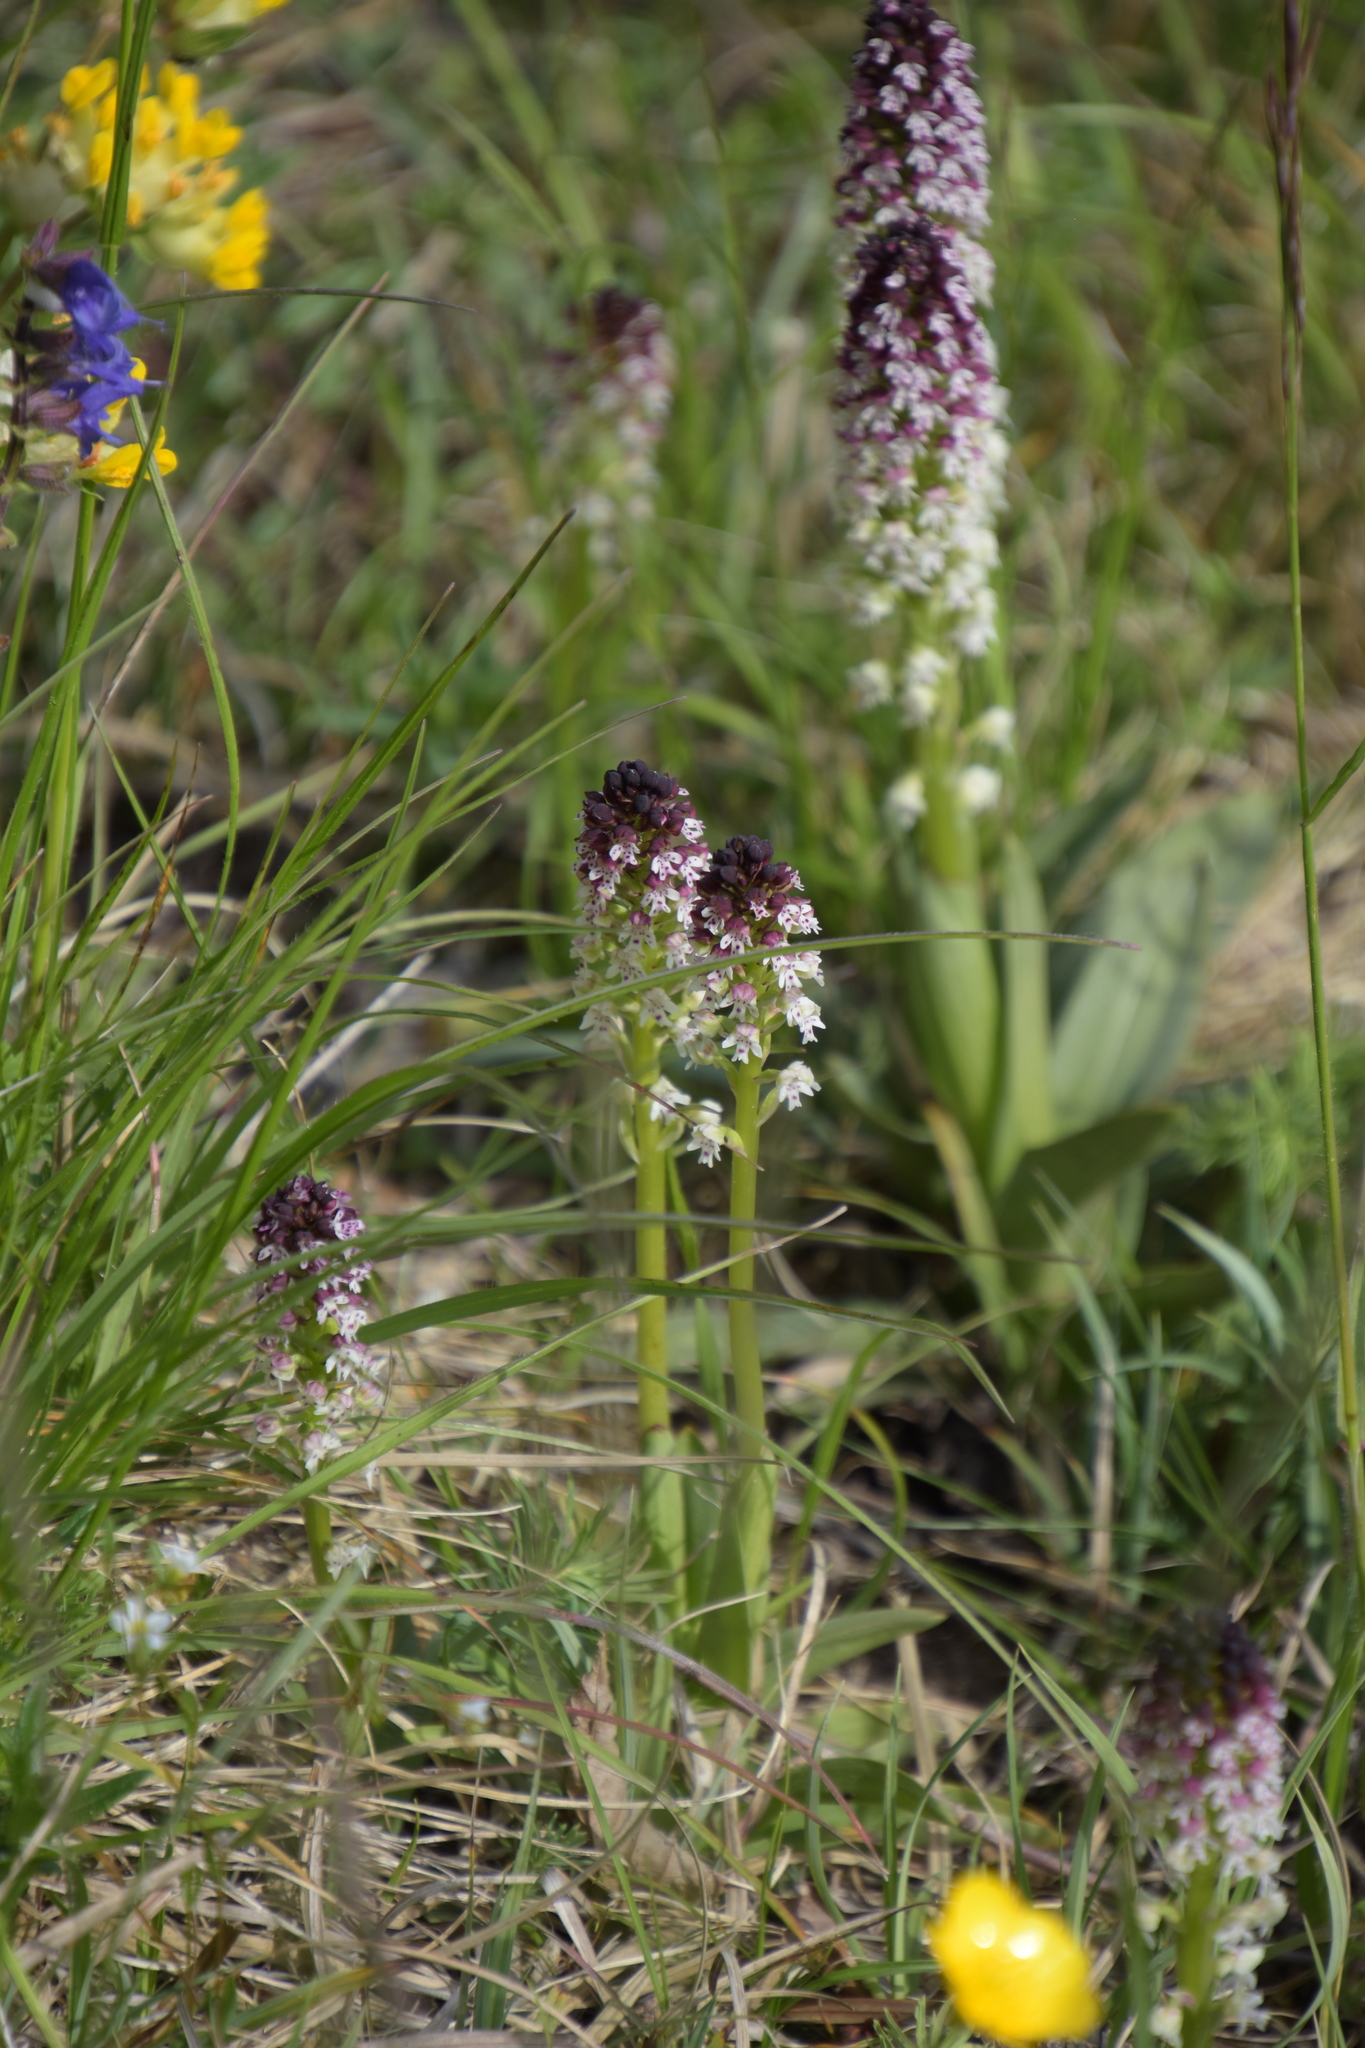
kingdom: Plantae
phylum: Tracheophyta
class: Liliopsida
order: Asparagales
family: Orchidaceae
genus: Neotinea
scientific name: Neotinea ustulata
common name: Burnt orchid
